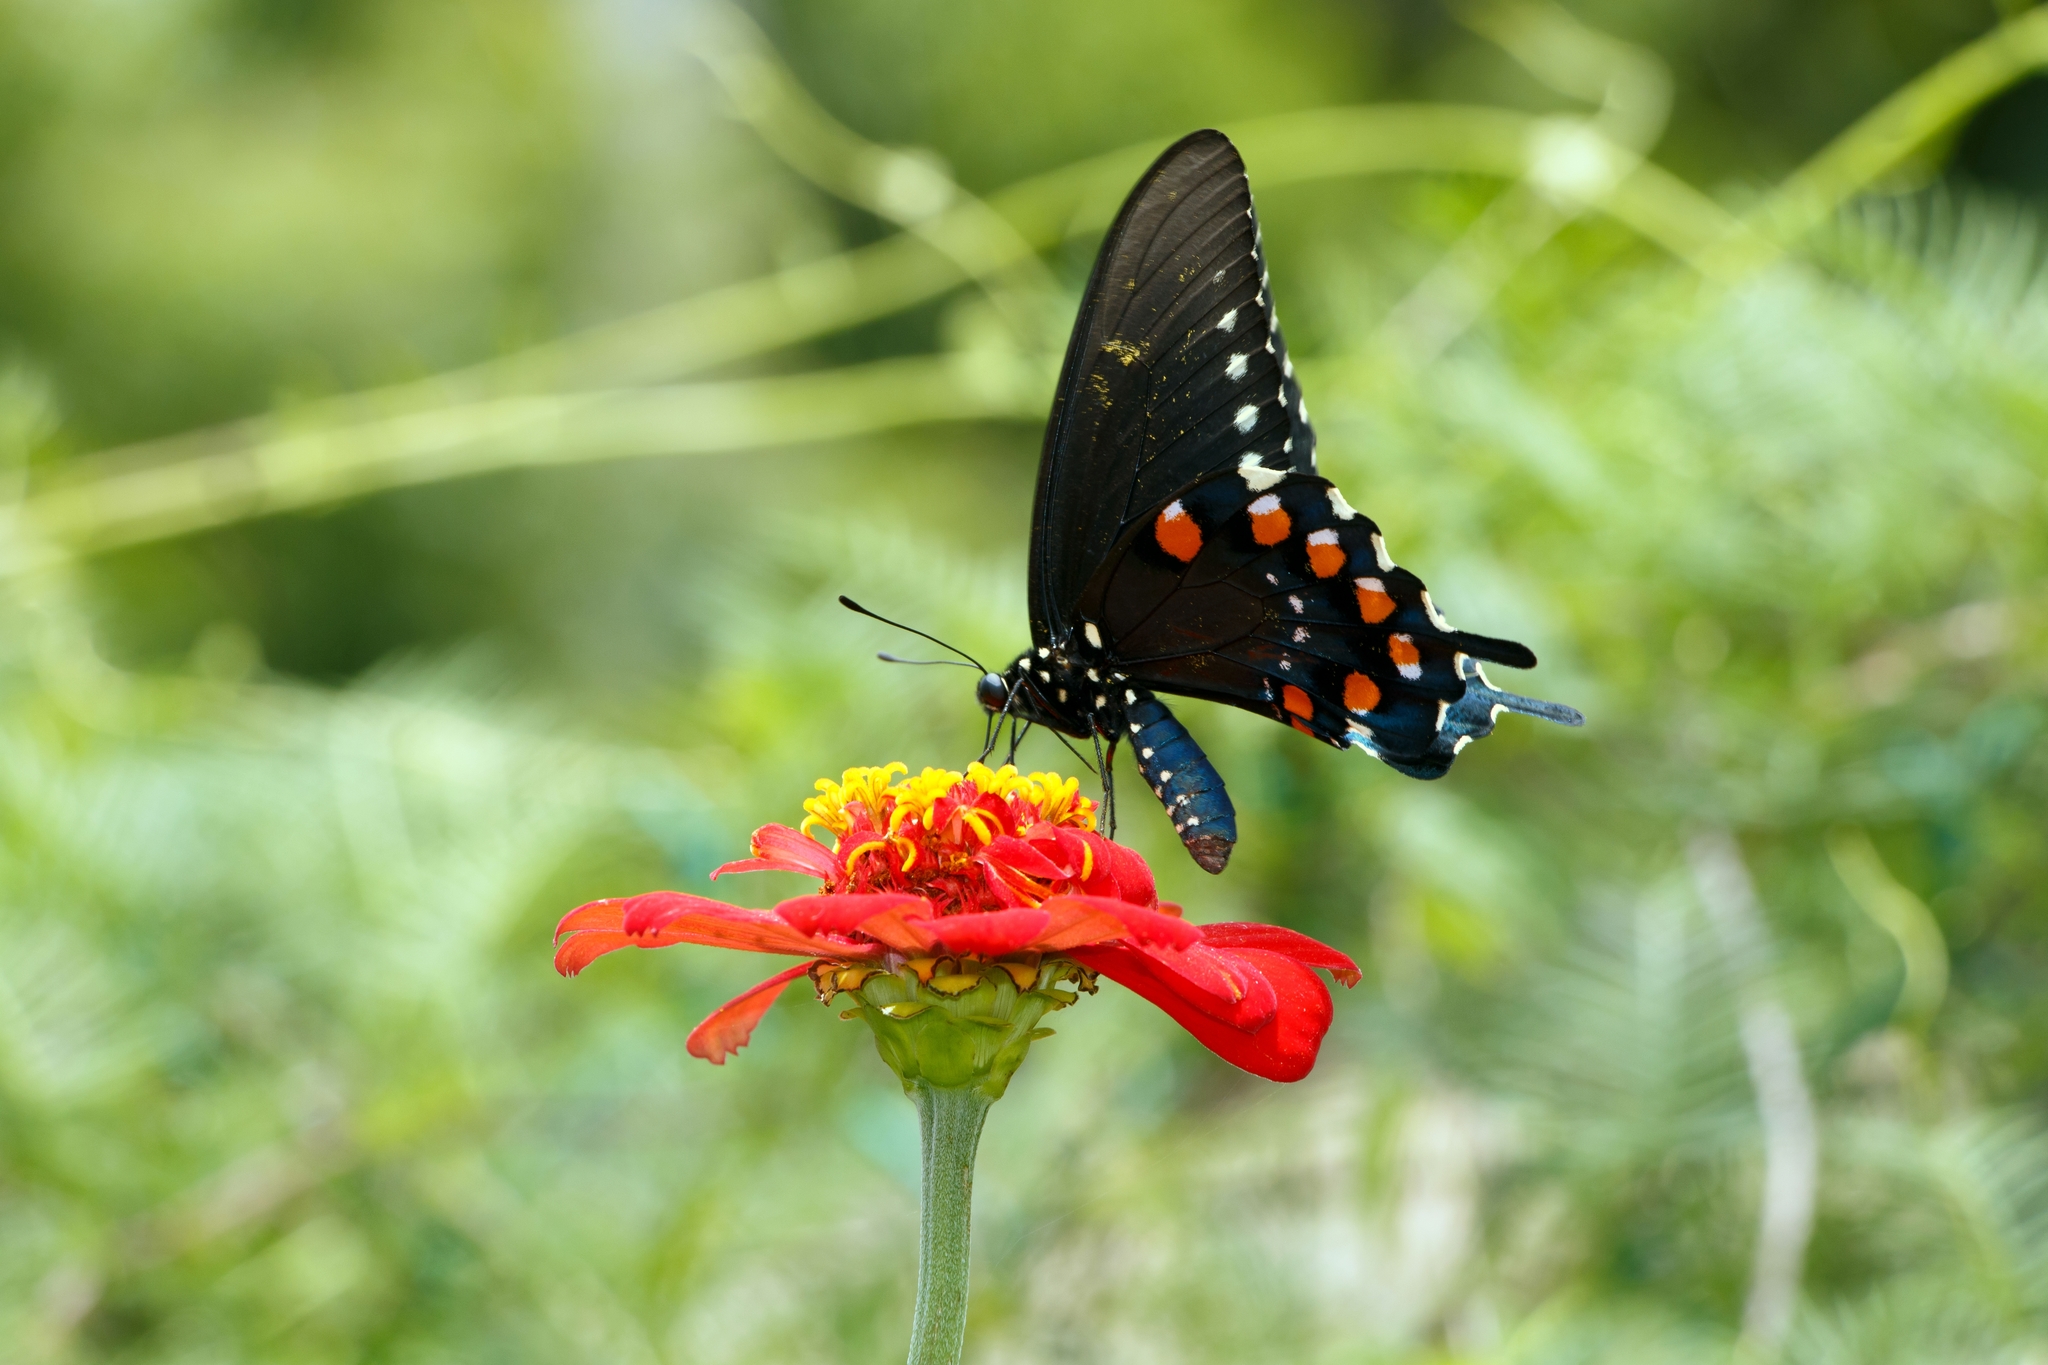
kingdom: Animalia
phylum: Arthropoda
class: Insecta
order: Lepidoptera
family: Papilionidae
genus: Battus
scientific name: Battus philenor
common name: Pipevine swallowtail
